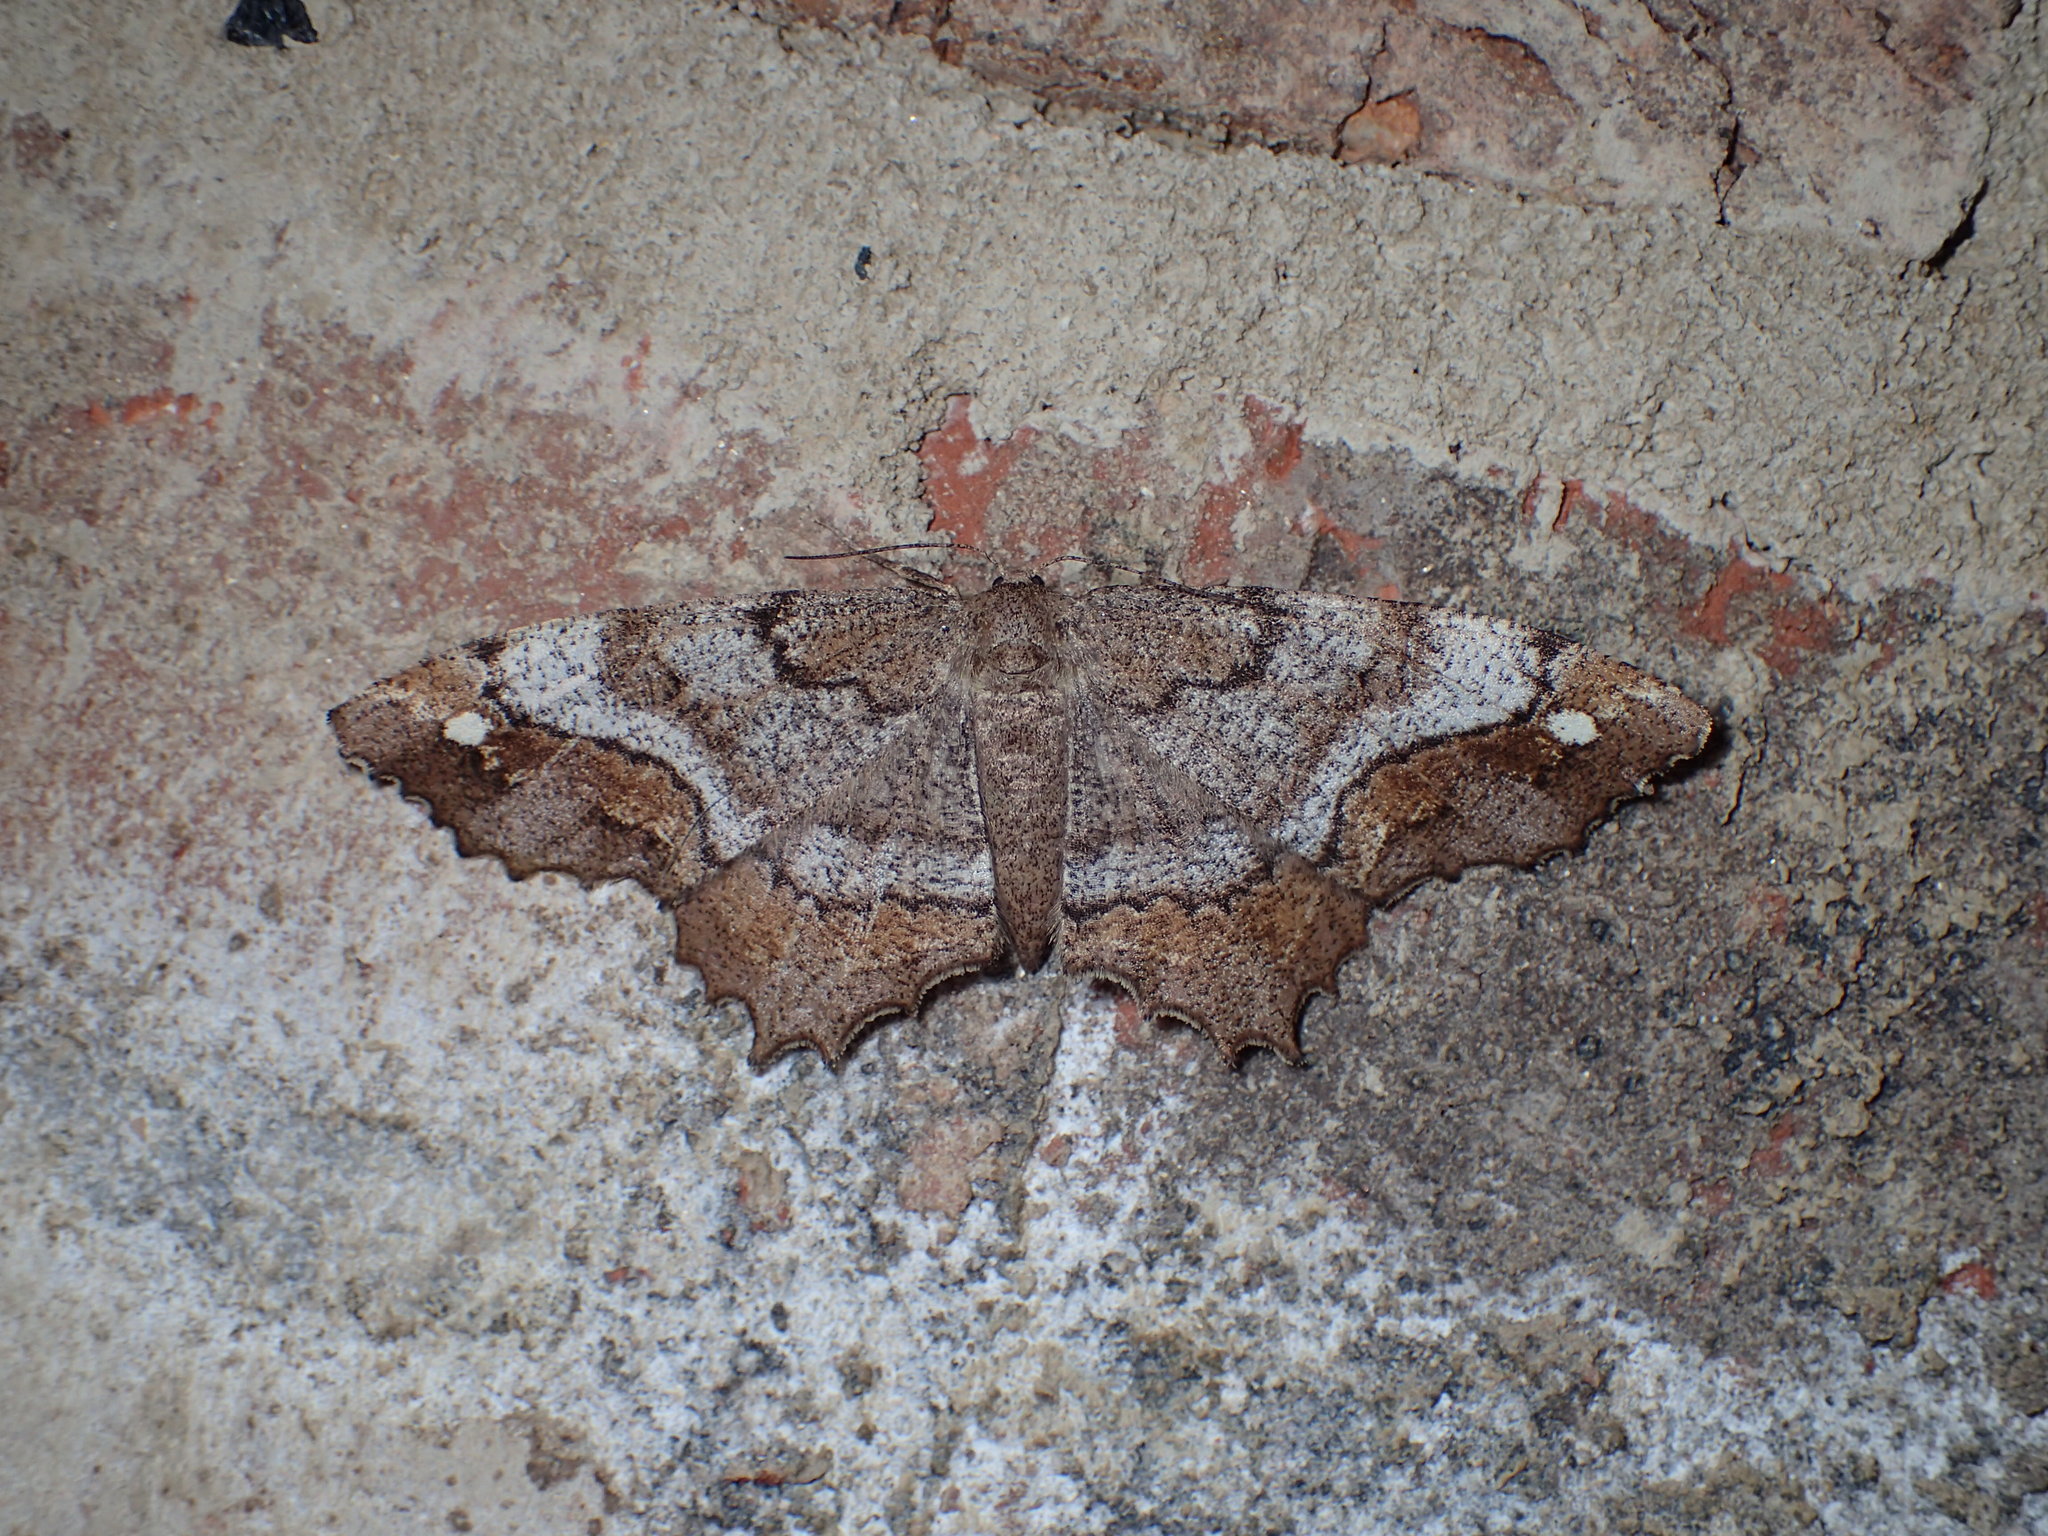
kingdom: Animalia
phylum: Arthropoda
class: Insecta
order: Lepidoptera
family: Geometridae
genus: Hypagyrtis
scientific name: Hypagyrtis unipunctata
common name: One-spotted variant
